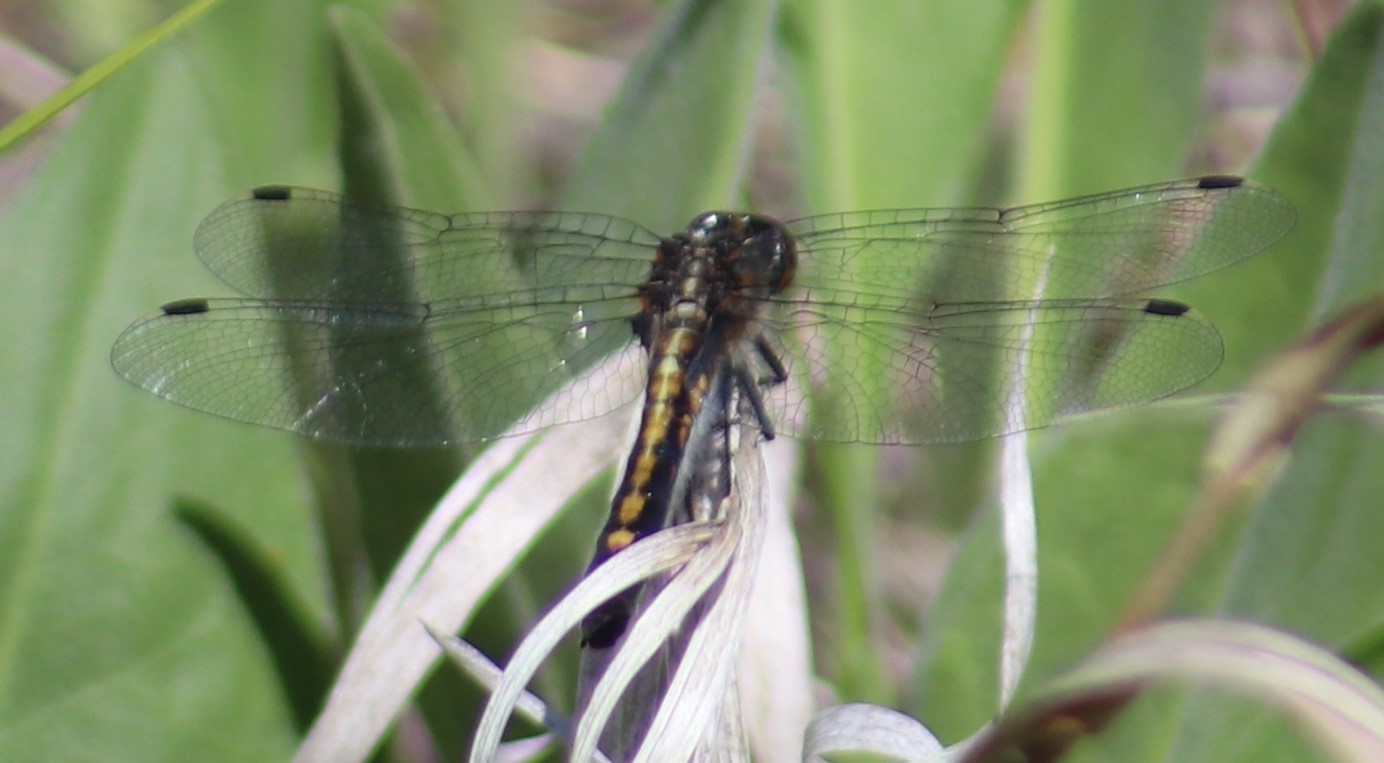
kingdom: Animalia
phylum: Arthropoda
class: Insecta
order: Odonata
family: Libellulidae
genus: Leucorrhinia
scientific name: Leucorrhinia intacta
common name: Dot-tailed whiteface
